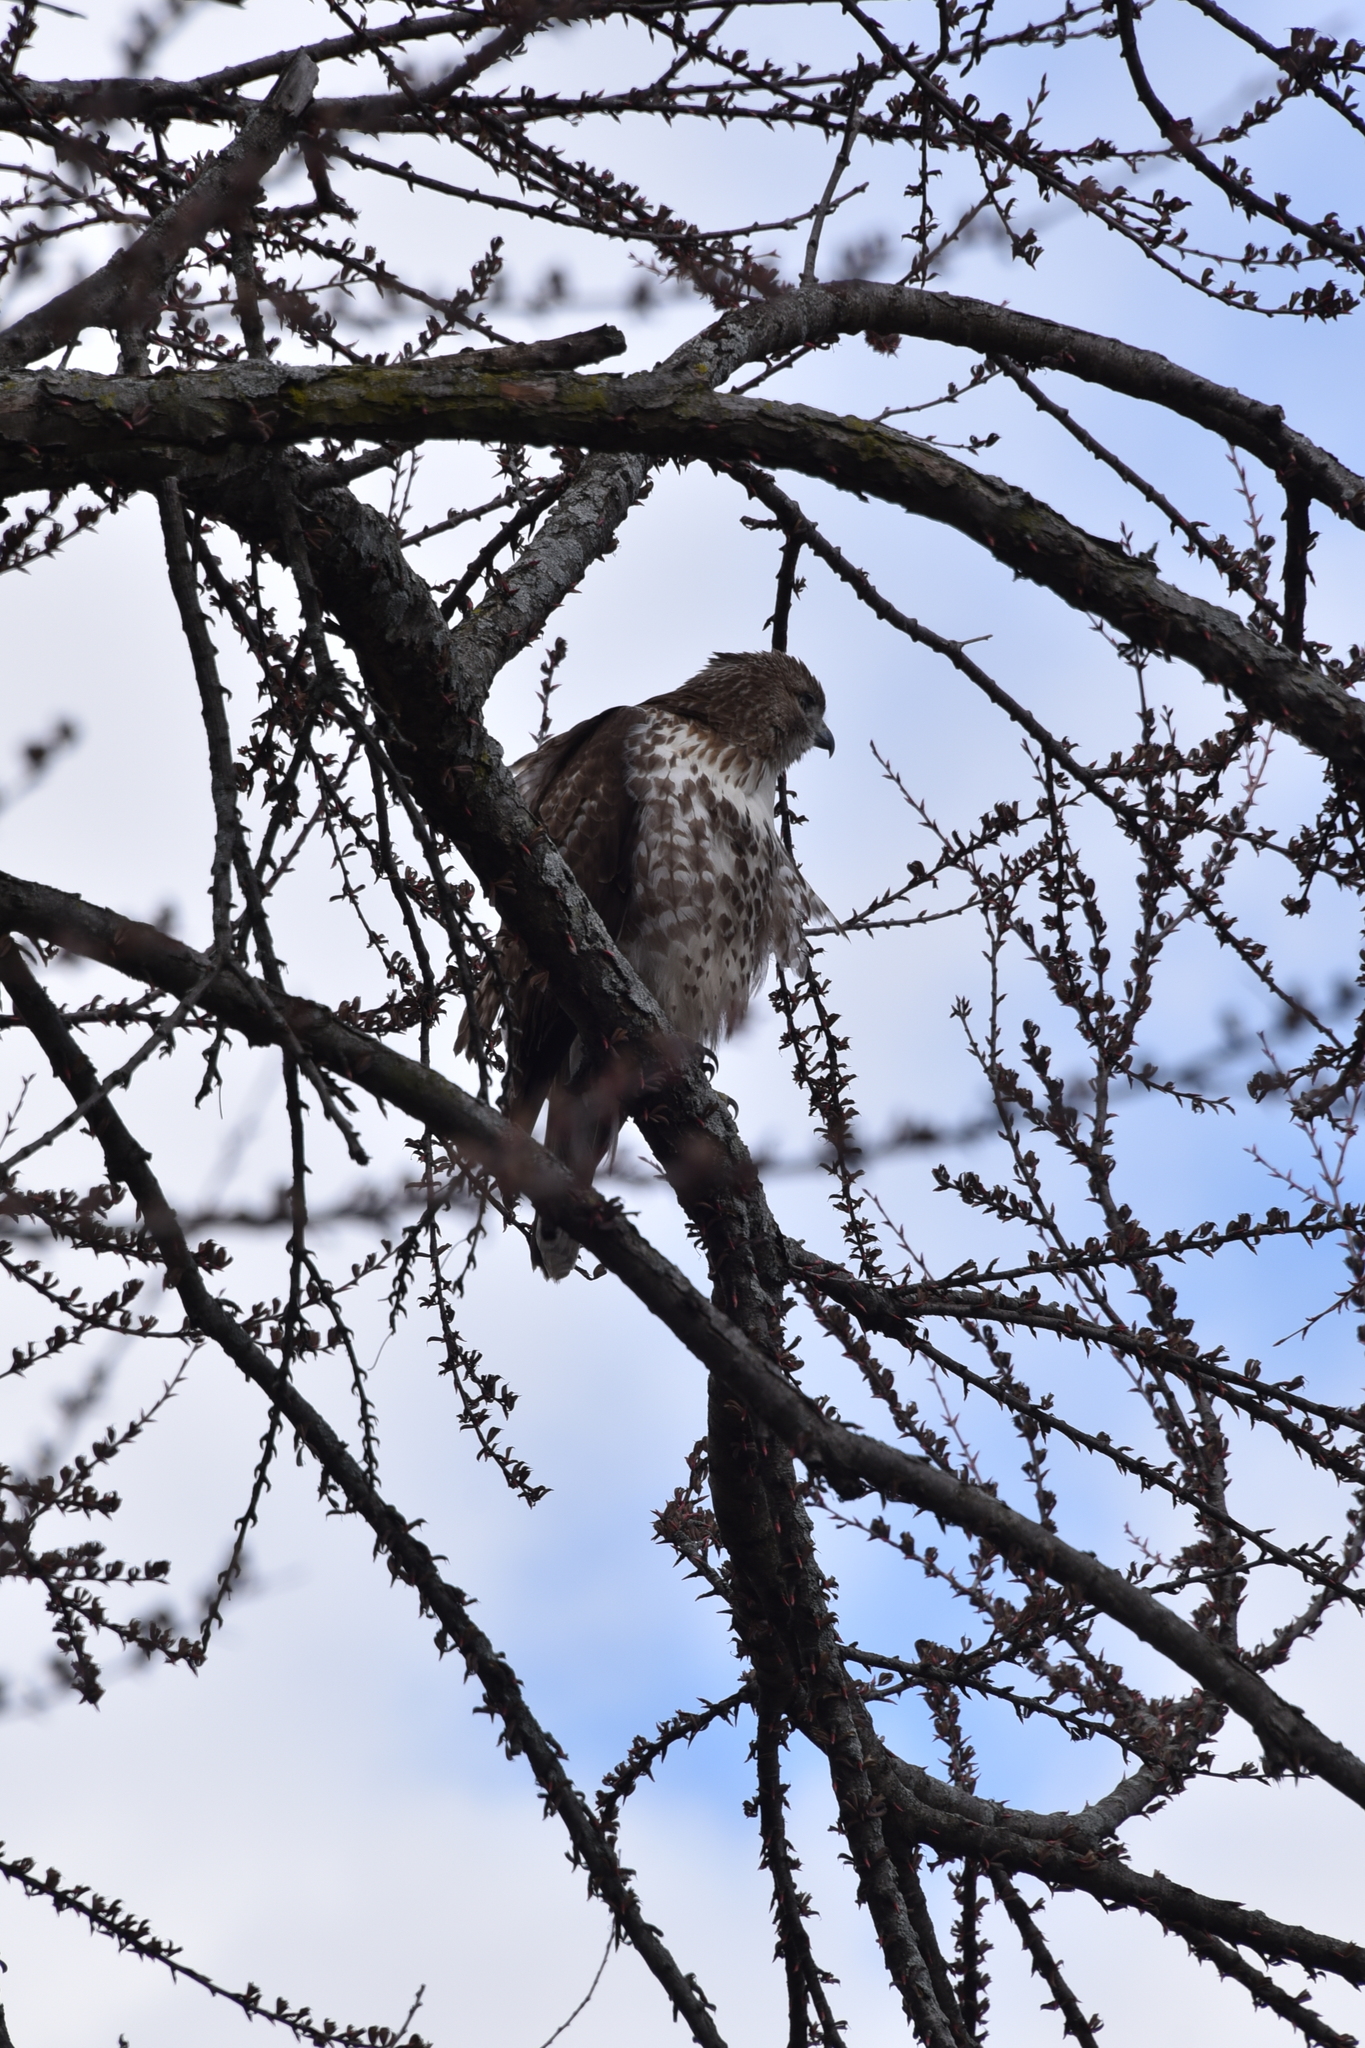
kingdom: Animalia
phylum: Chordata
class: Aves
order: Accipitriformes
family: Accipitridae
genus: Buteo
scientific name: Buteo jamaicensis
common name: Red-tailed hawk
